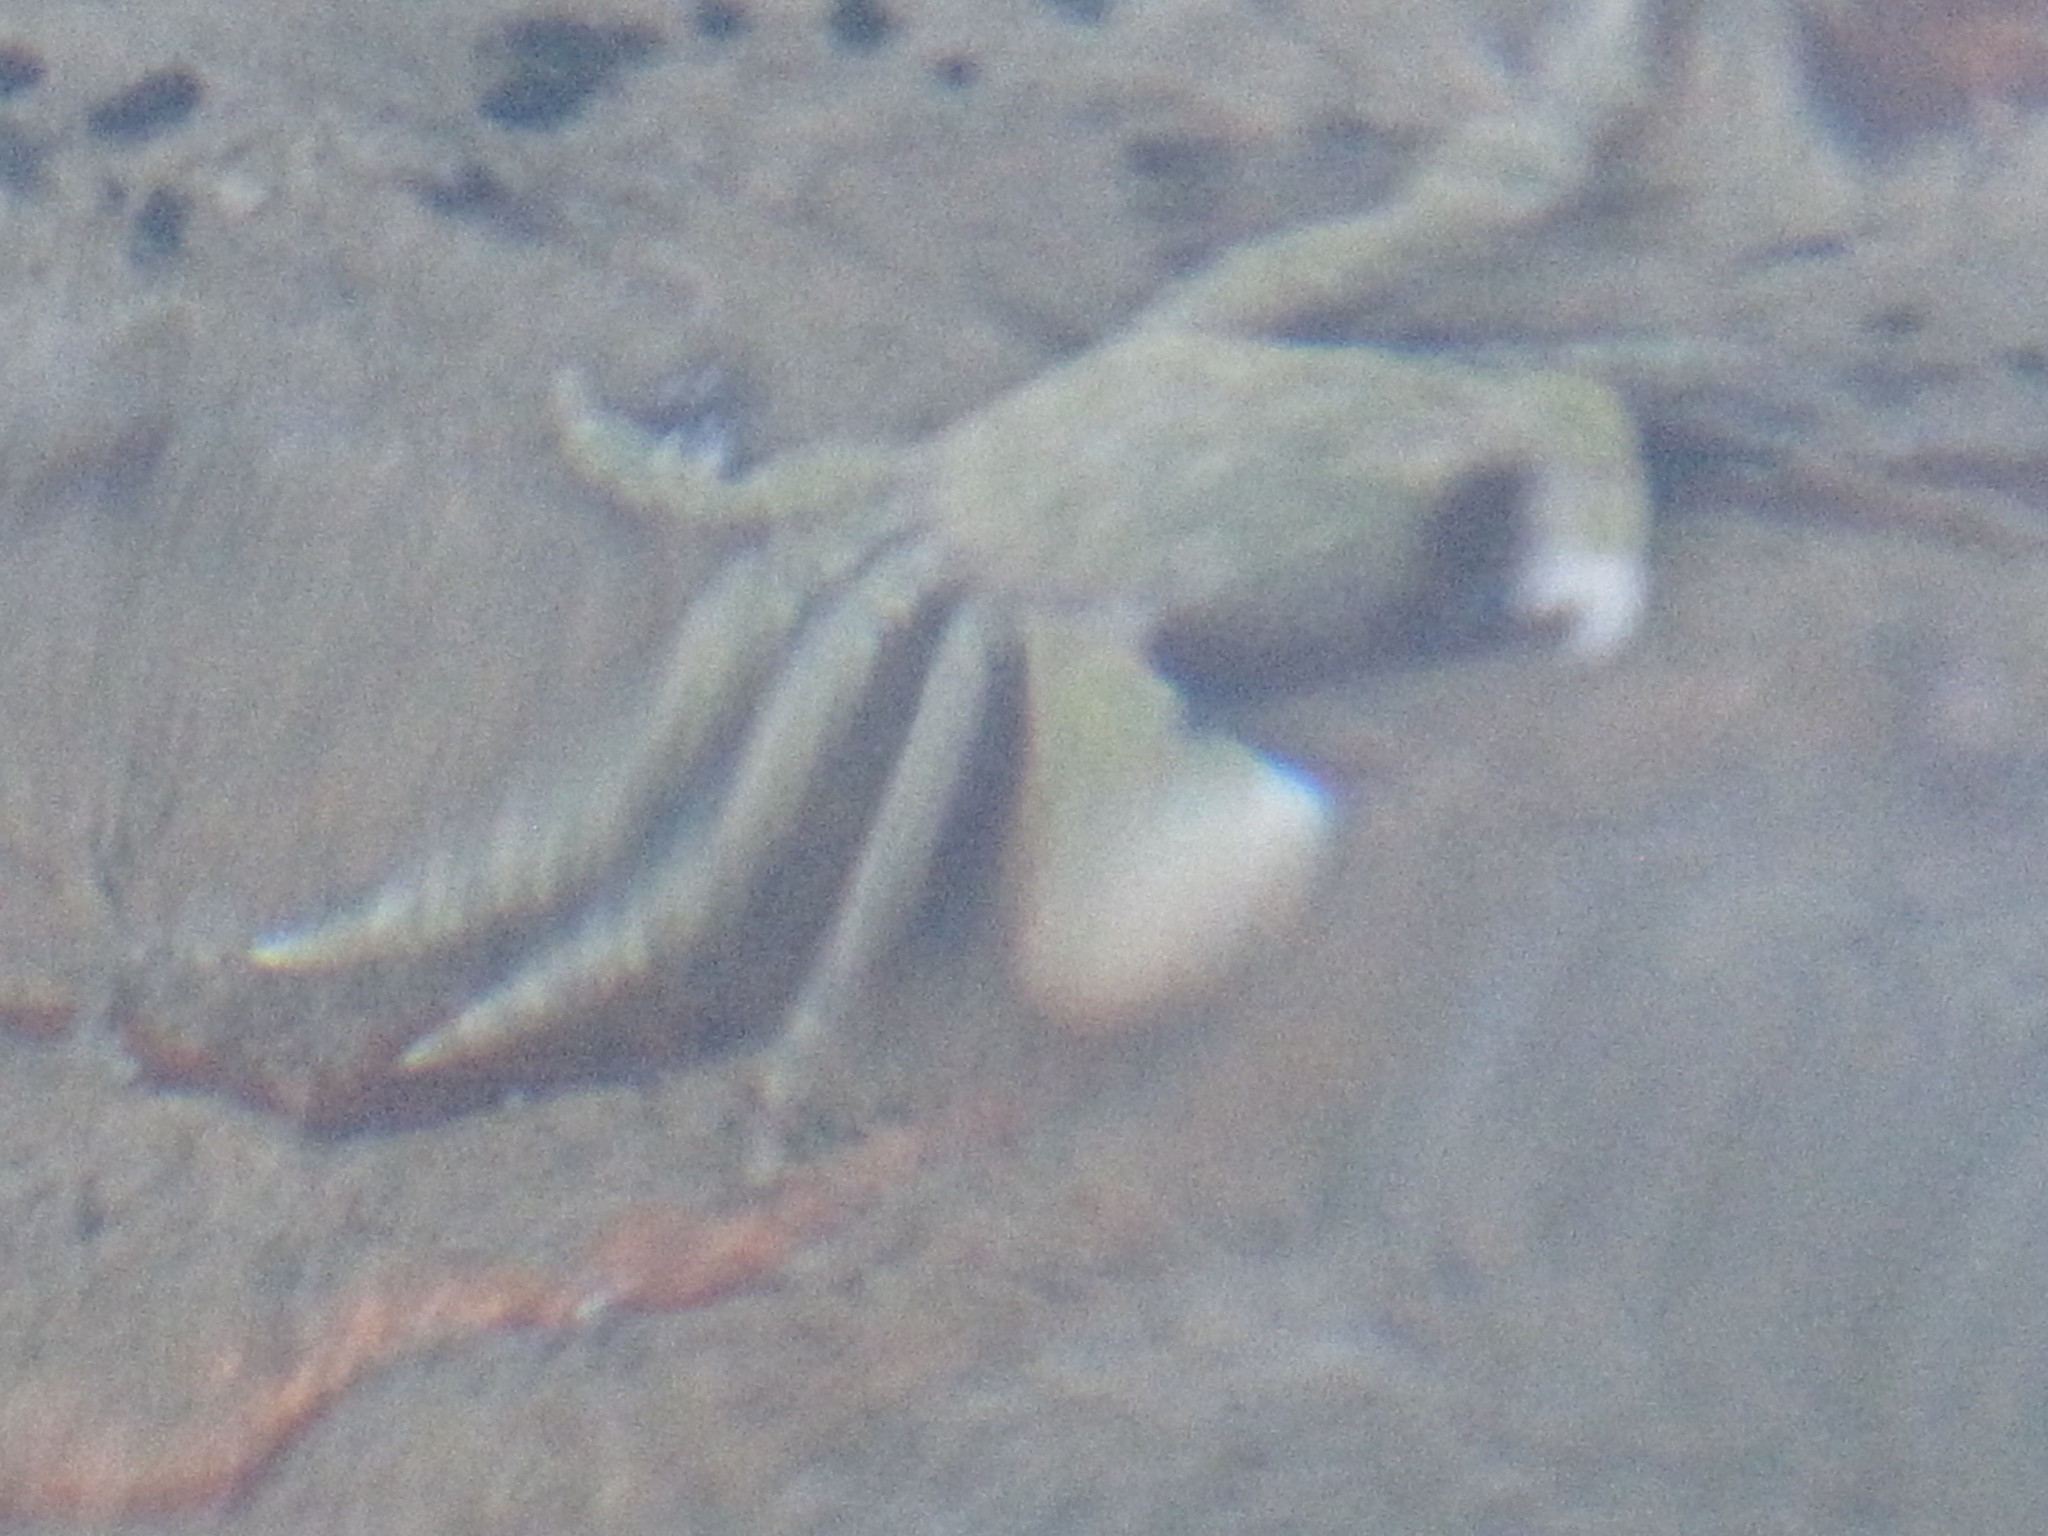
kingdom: Animalia
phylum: Arthropoda
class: Malacostraca
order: Decapoda
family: Varunidae
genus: Hemigrapsus
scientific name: Hemigrapsus oregonensis
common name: Yellow shore crab
